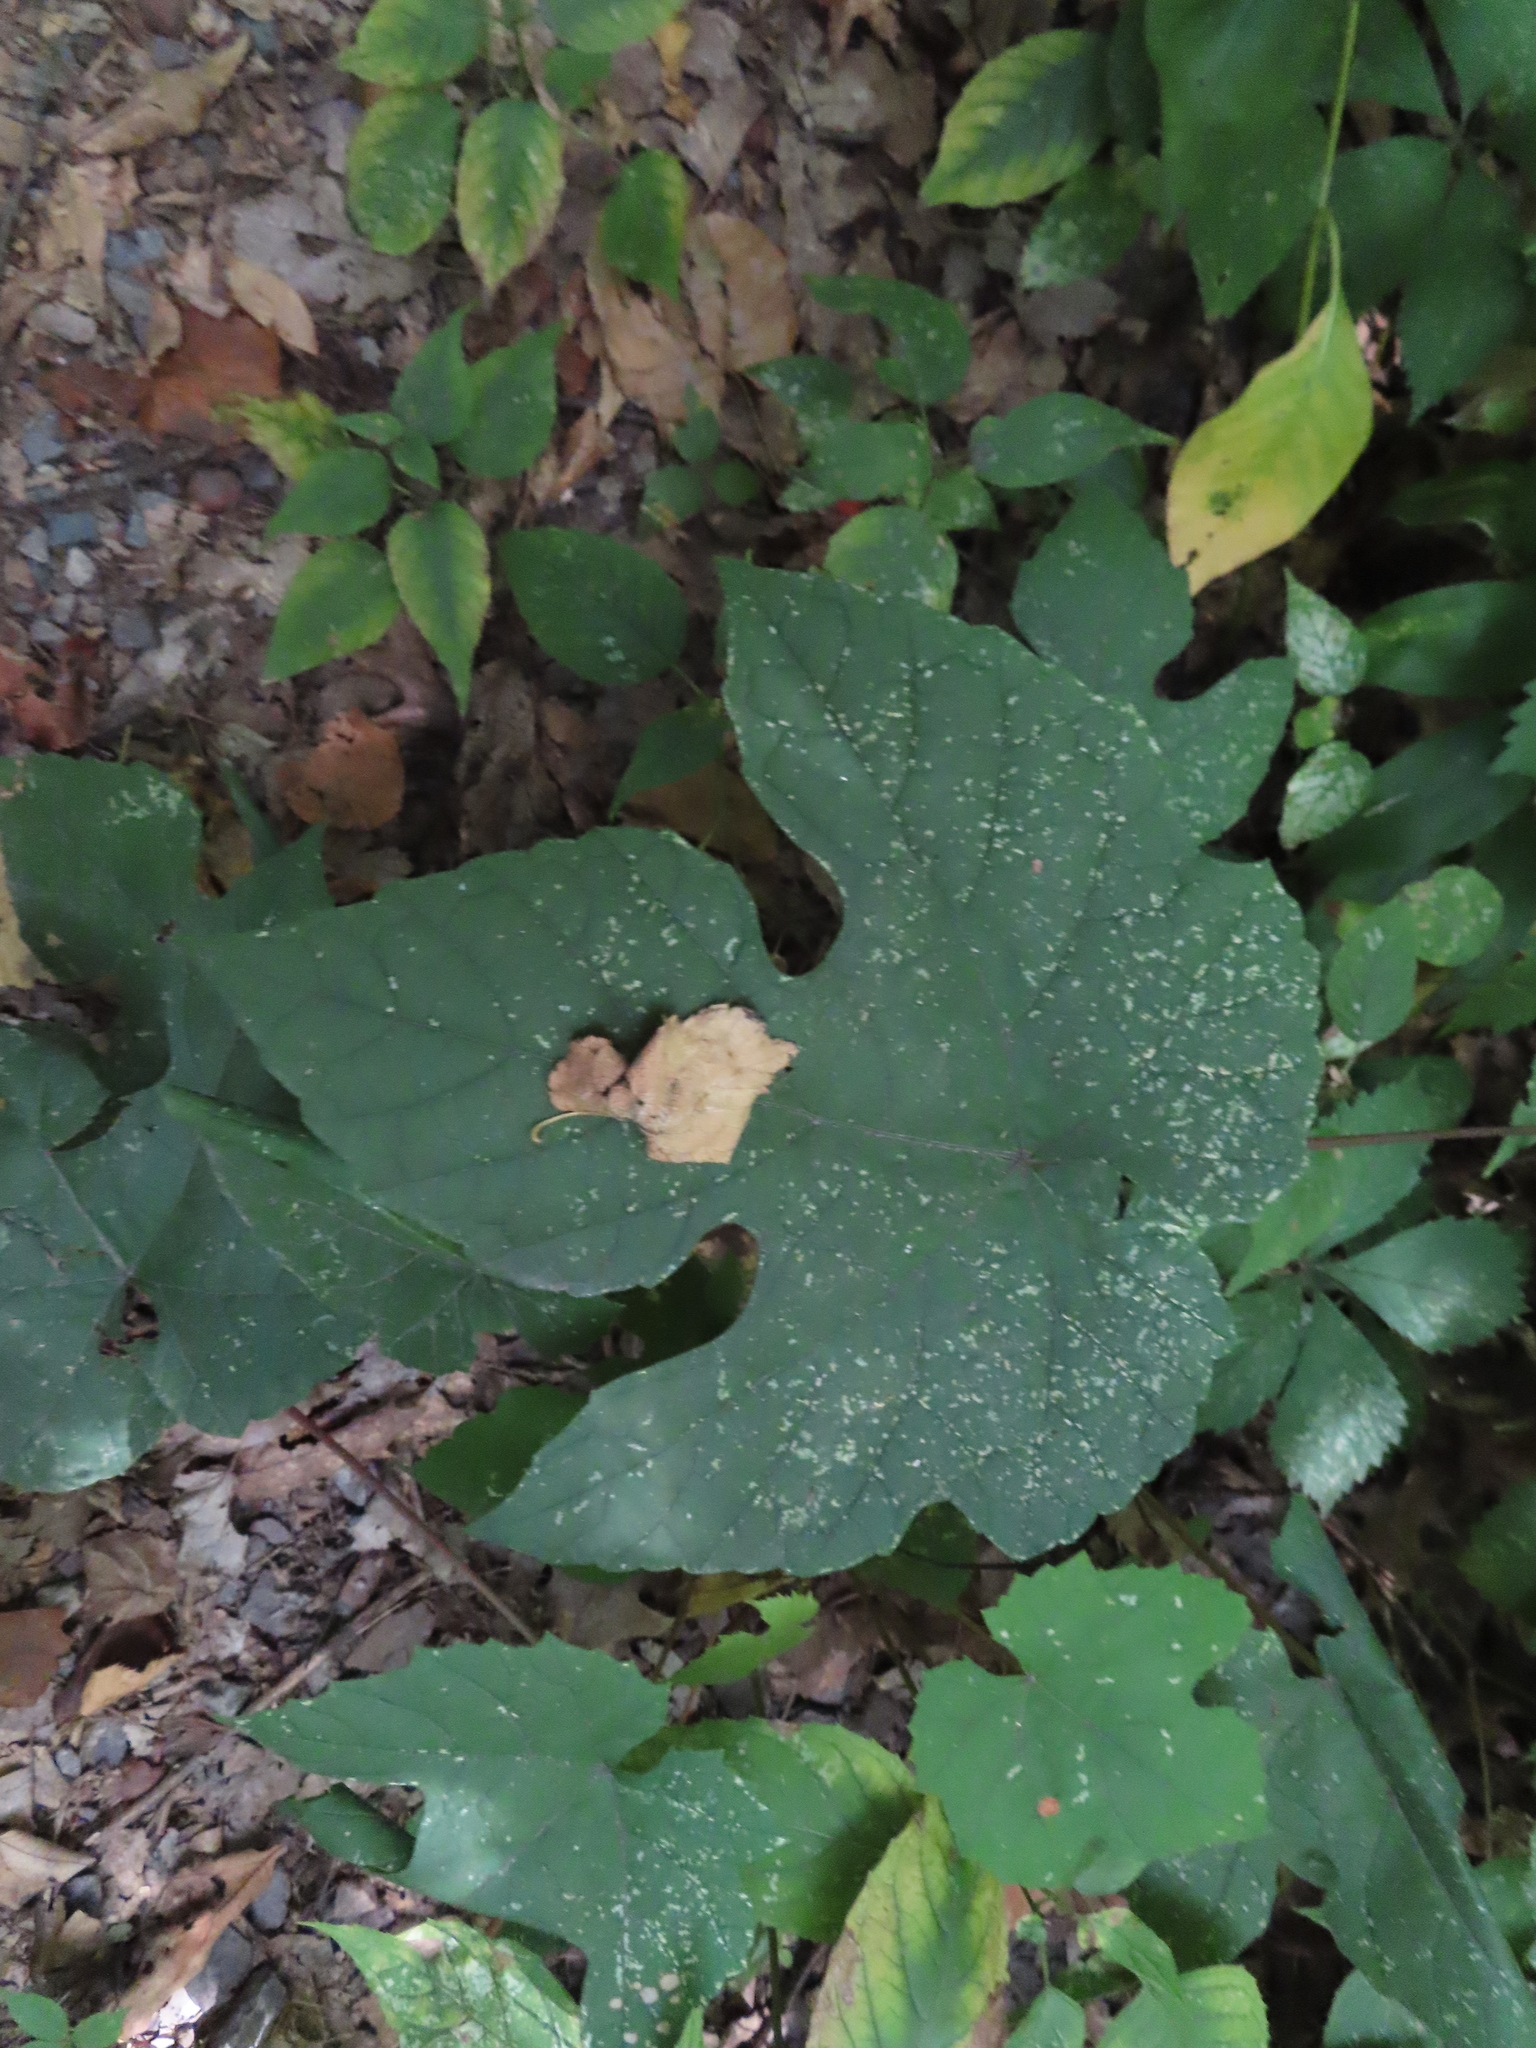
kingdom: Plantae
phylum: Tracheophyta
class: Magnoliopsida
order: Vitales
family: Vitaceae
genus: Vitis
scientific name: Vitis aestivalis
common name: Pigeon grape
